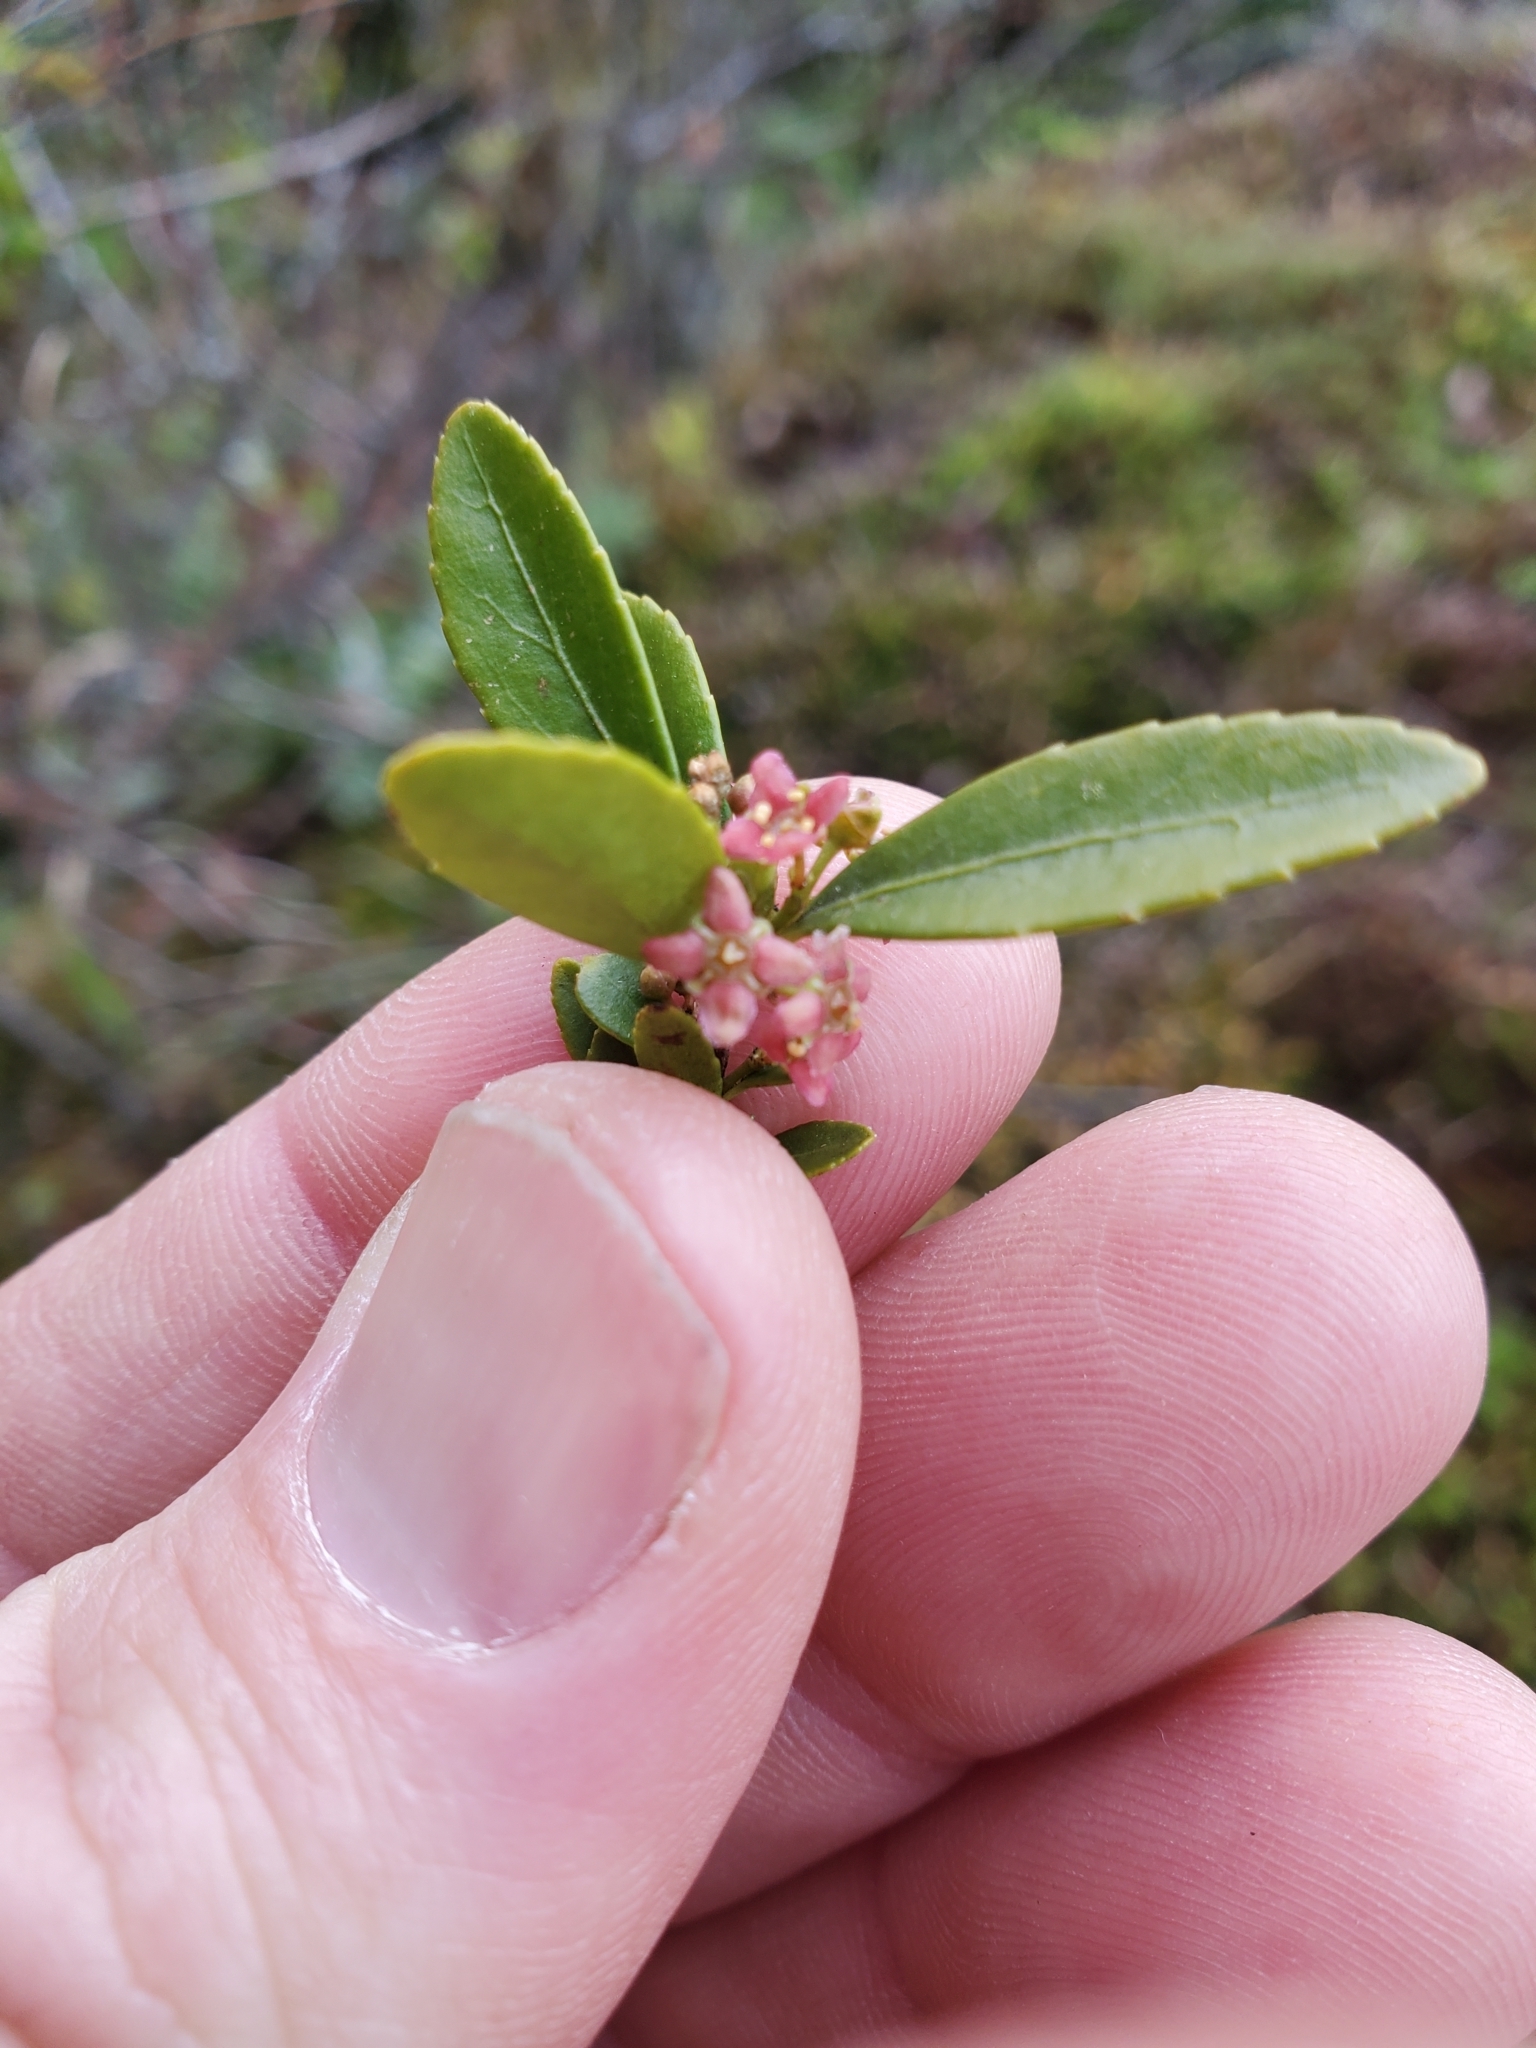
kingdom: Plantae
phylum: Tracheophyta
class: Magnoliopsida
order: Celastrales
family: Celastraceae
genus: Paxistima
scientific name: Paxistima myrsinites
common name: Mountain-lover
